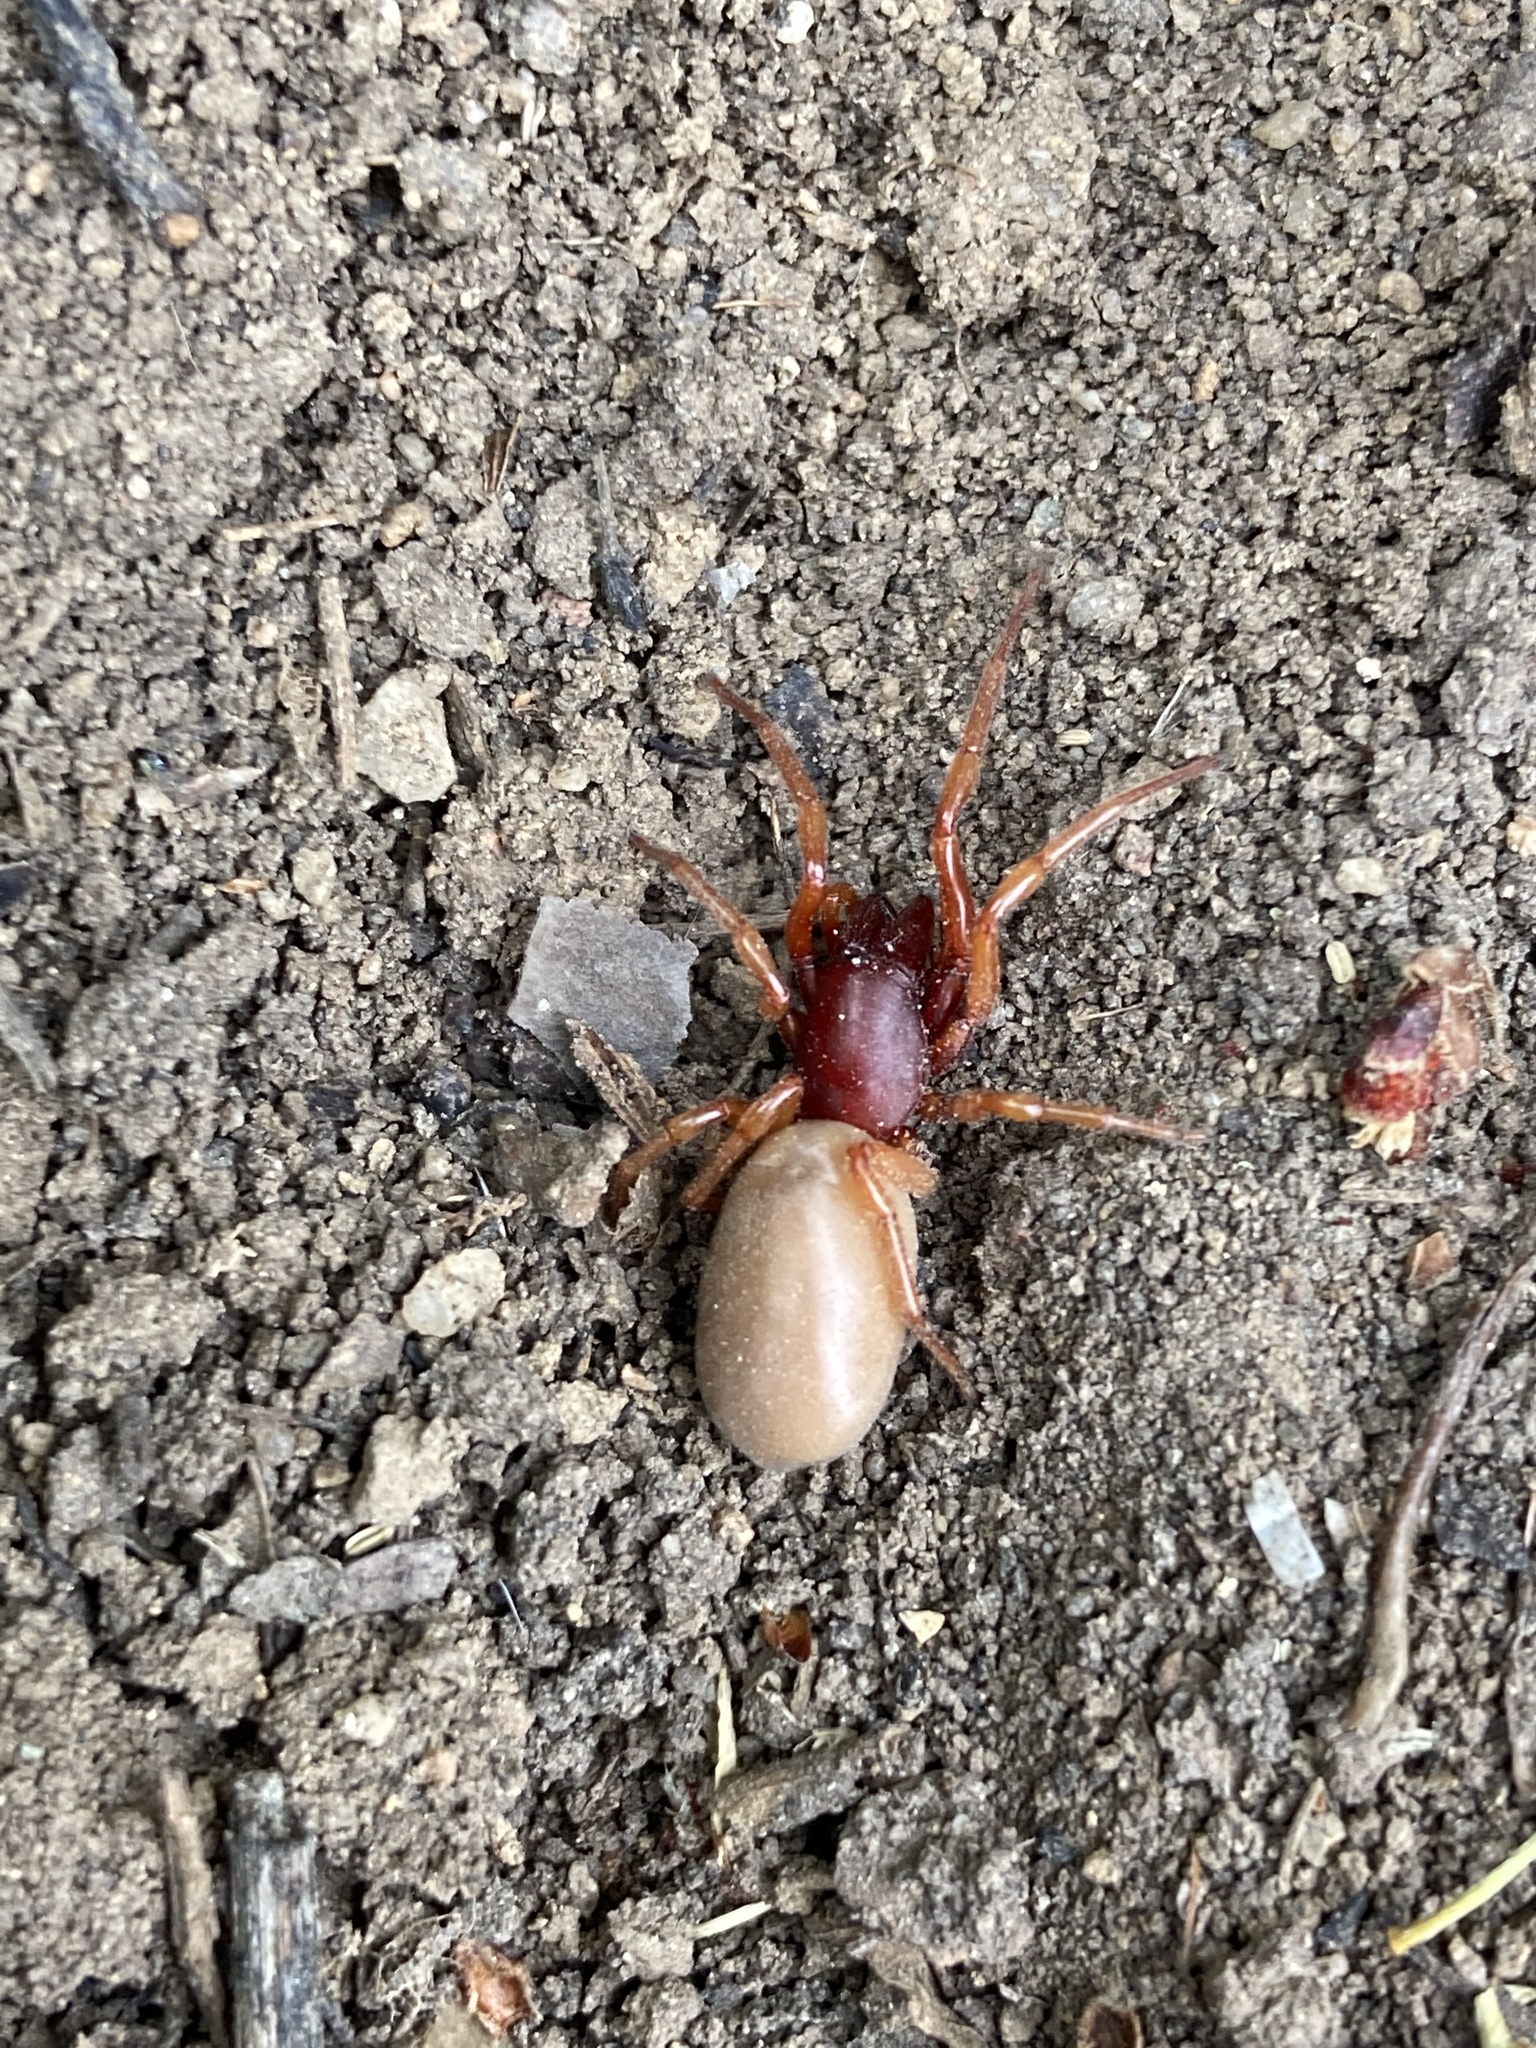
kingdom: Animalia
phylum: Arthropoda
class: Arachnida
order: Araneae
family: Dysderidae
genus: Dysdera
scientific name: Dysdera crocata
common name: Woodlouse spider
